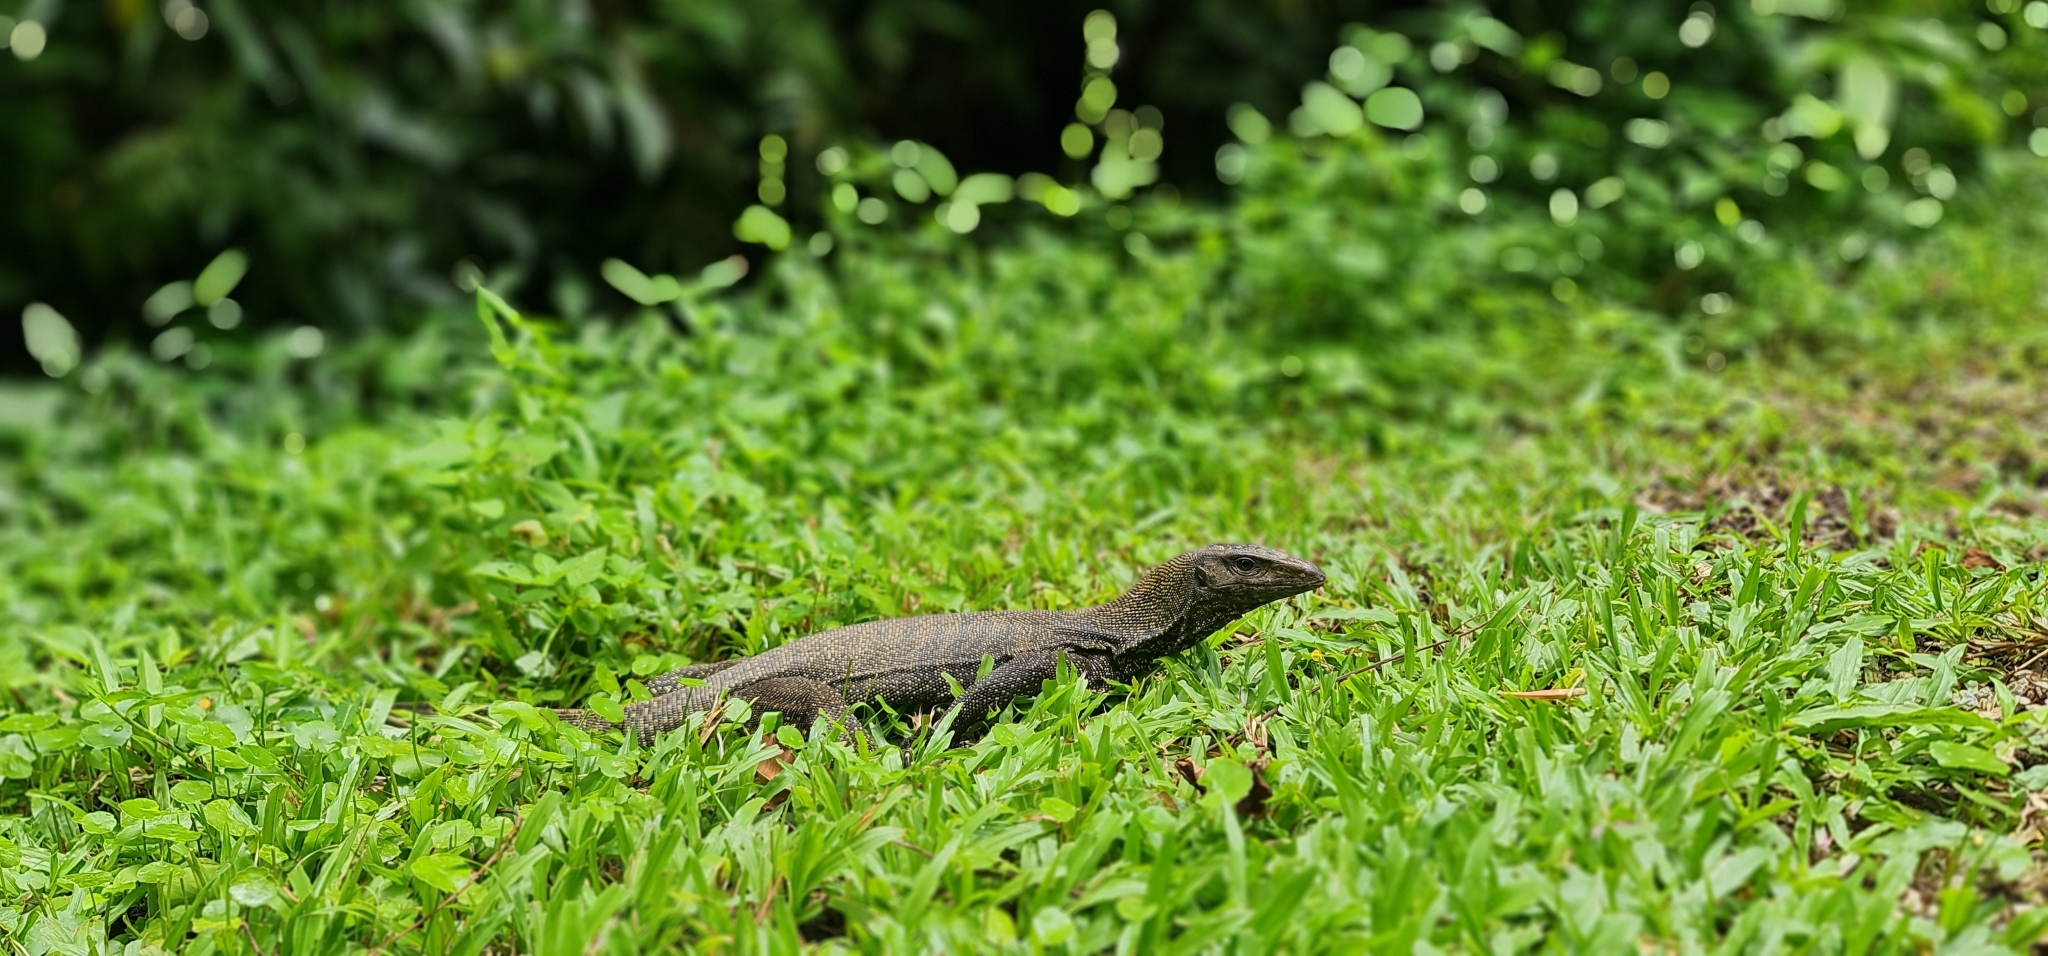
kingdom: Animalia
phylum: Chordata
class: Squamata
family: Varanidae
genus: Varanus
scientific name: Varanus nebulosus
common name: Clouded monitor
